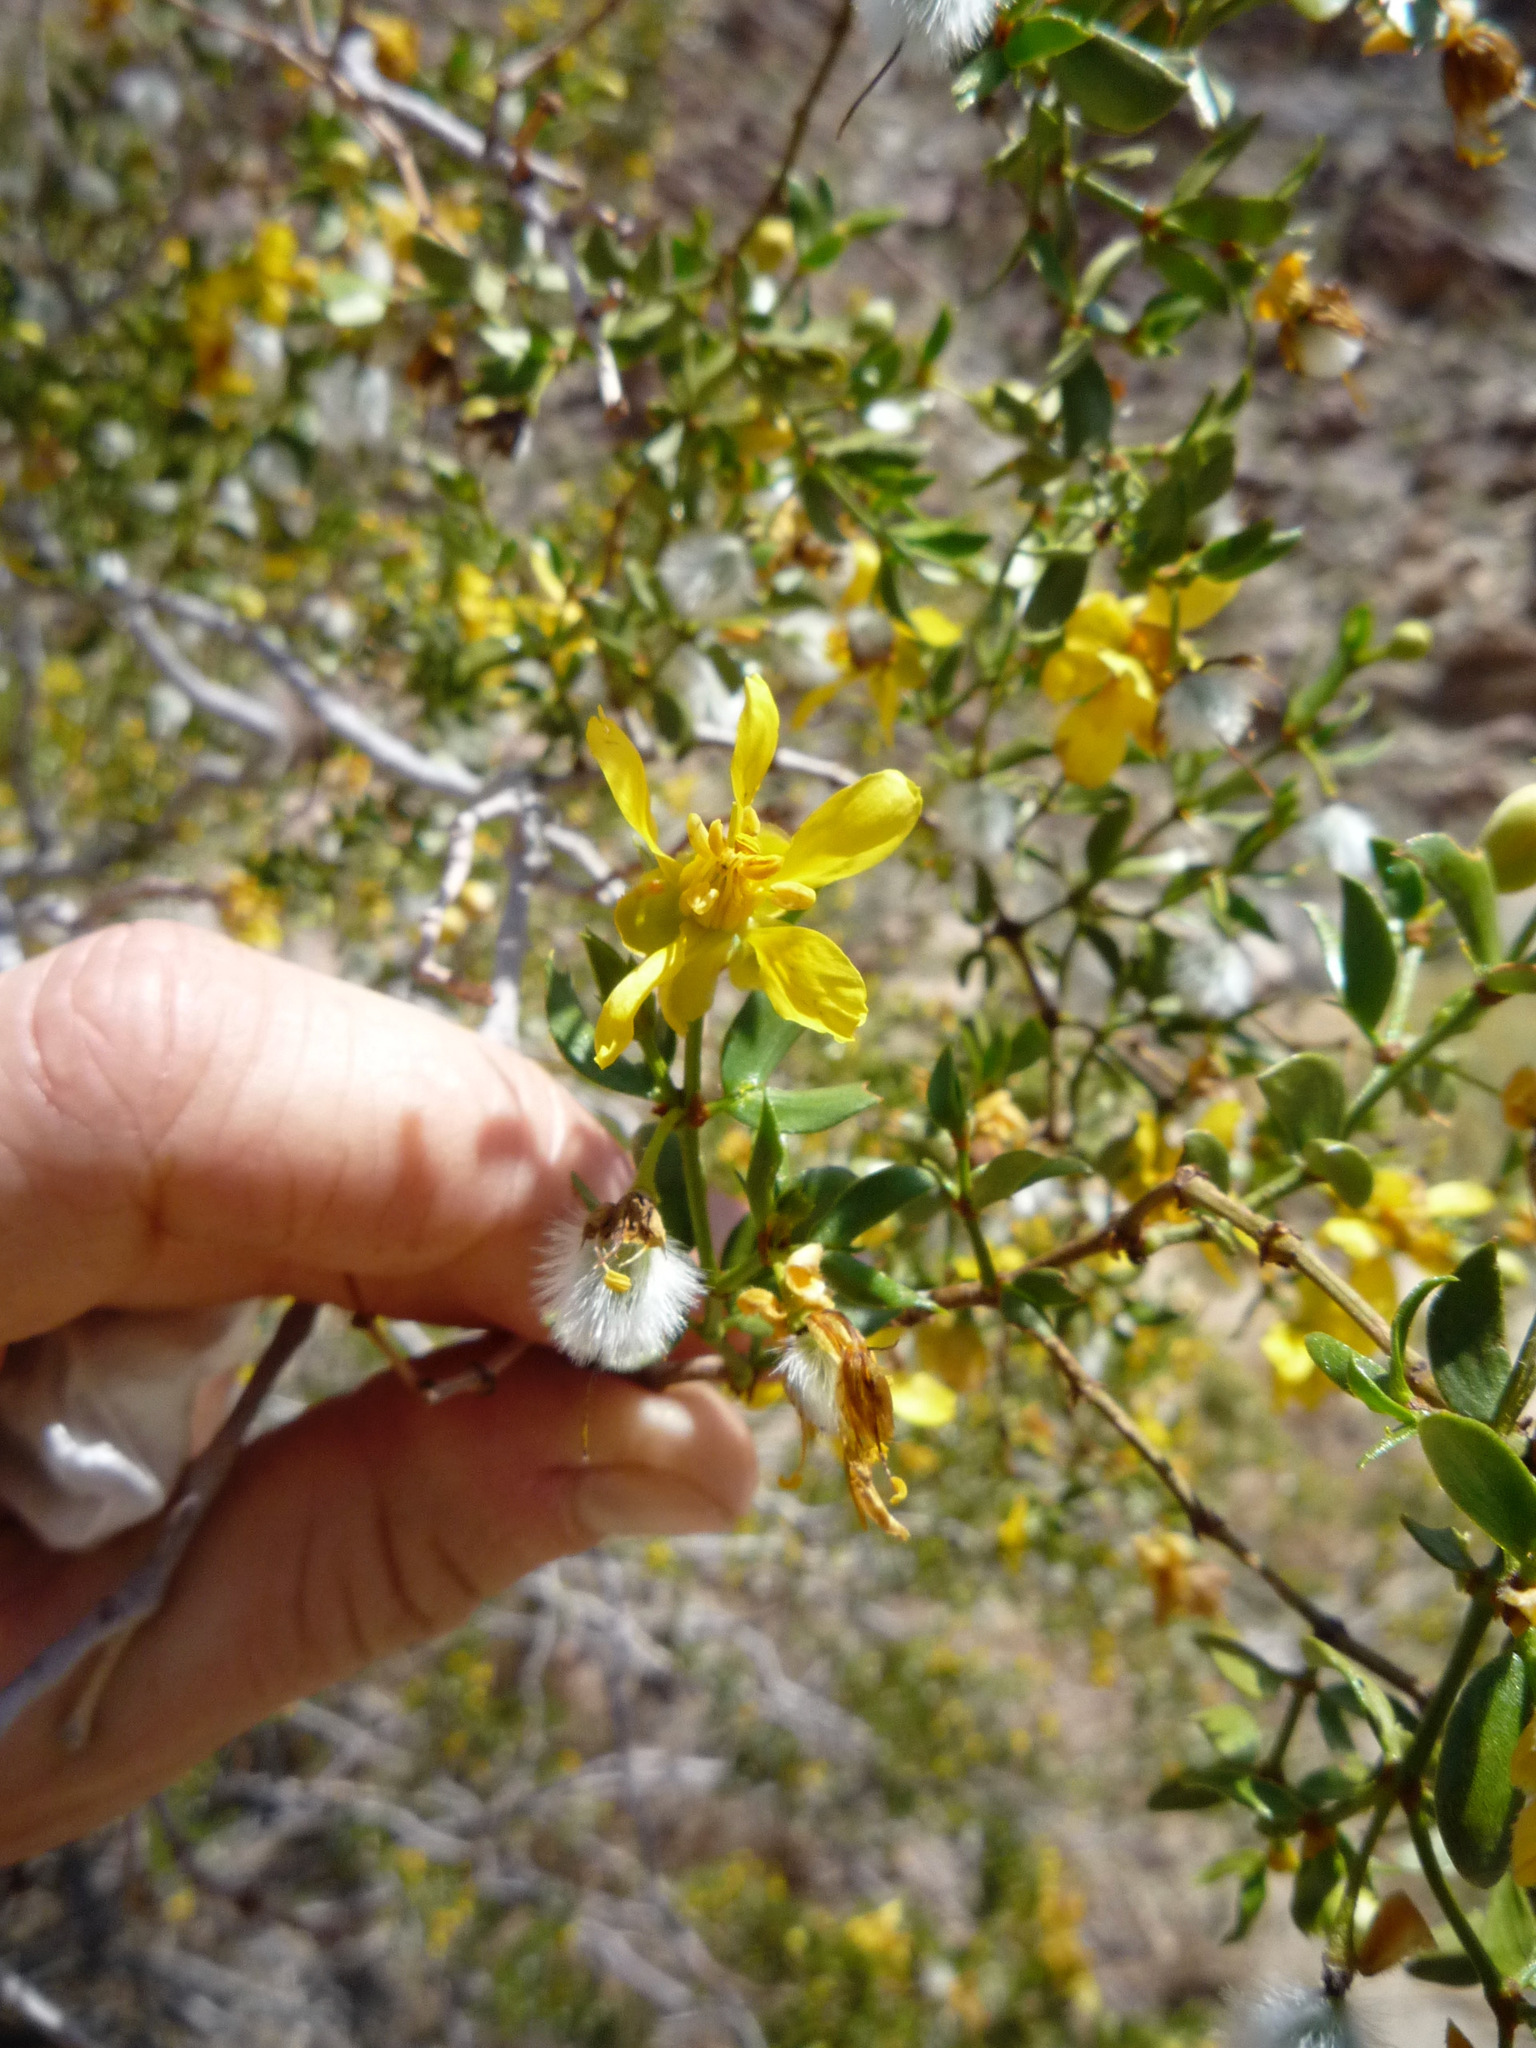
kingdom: Plantae
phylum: Tracheophyta
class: Magnoliopsida
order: Zygophyllales
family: Zygophyllaceae
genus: Larrea
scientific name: Larrea tridentata
